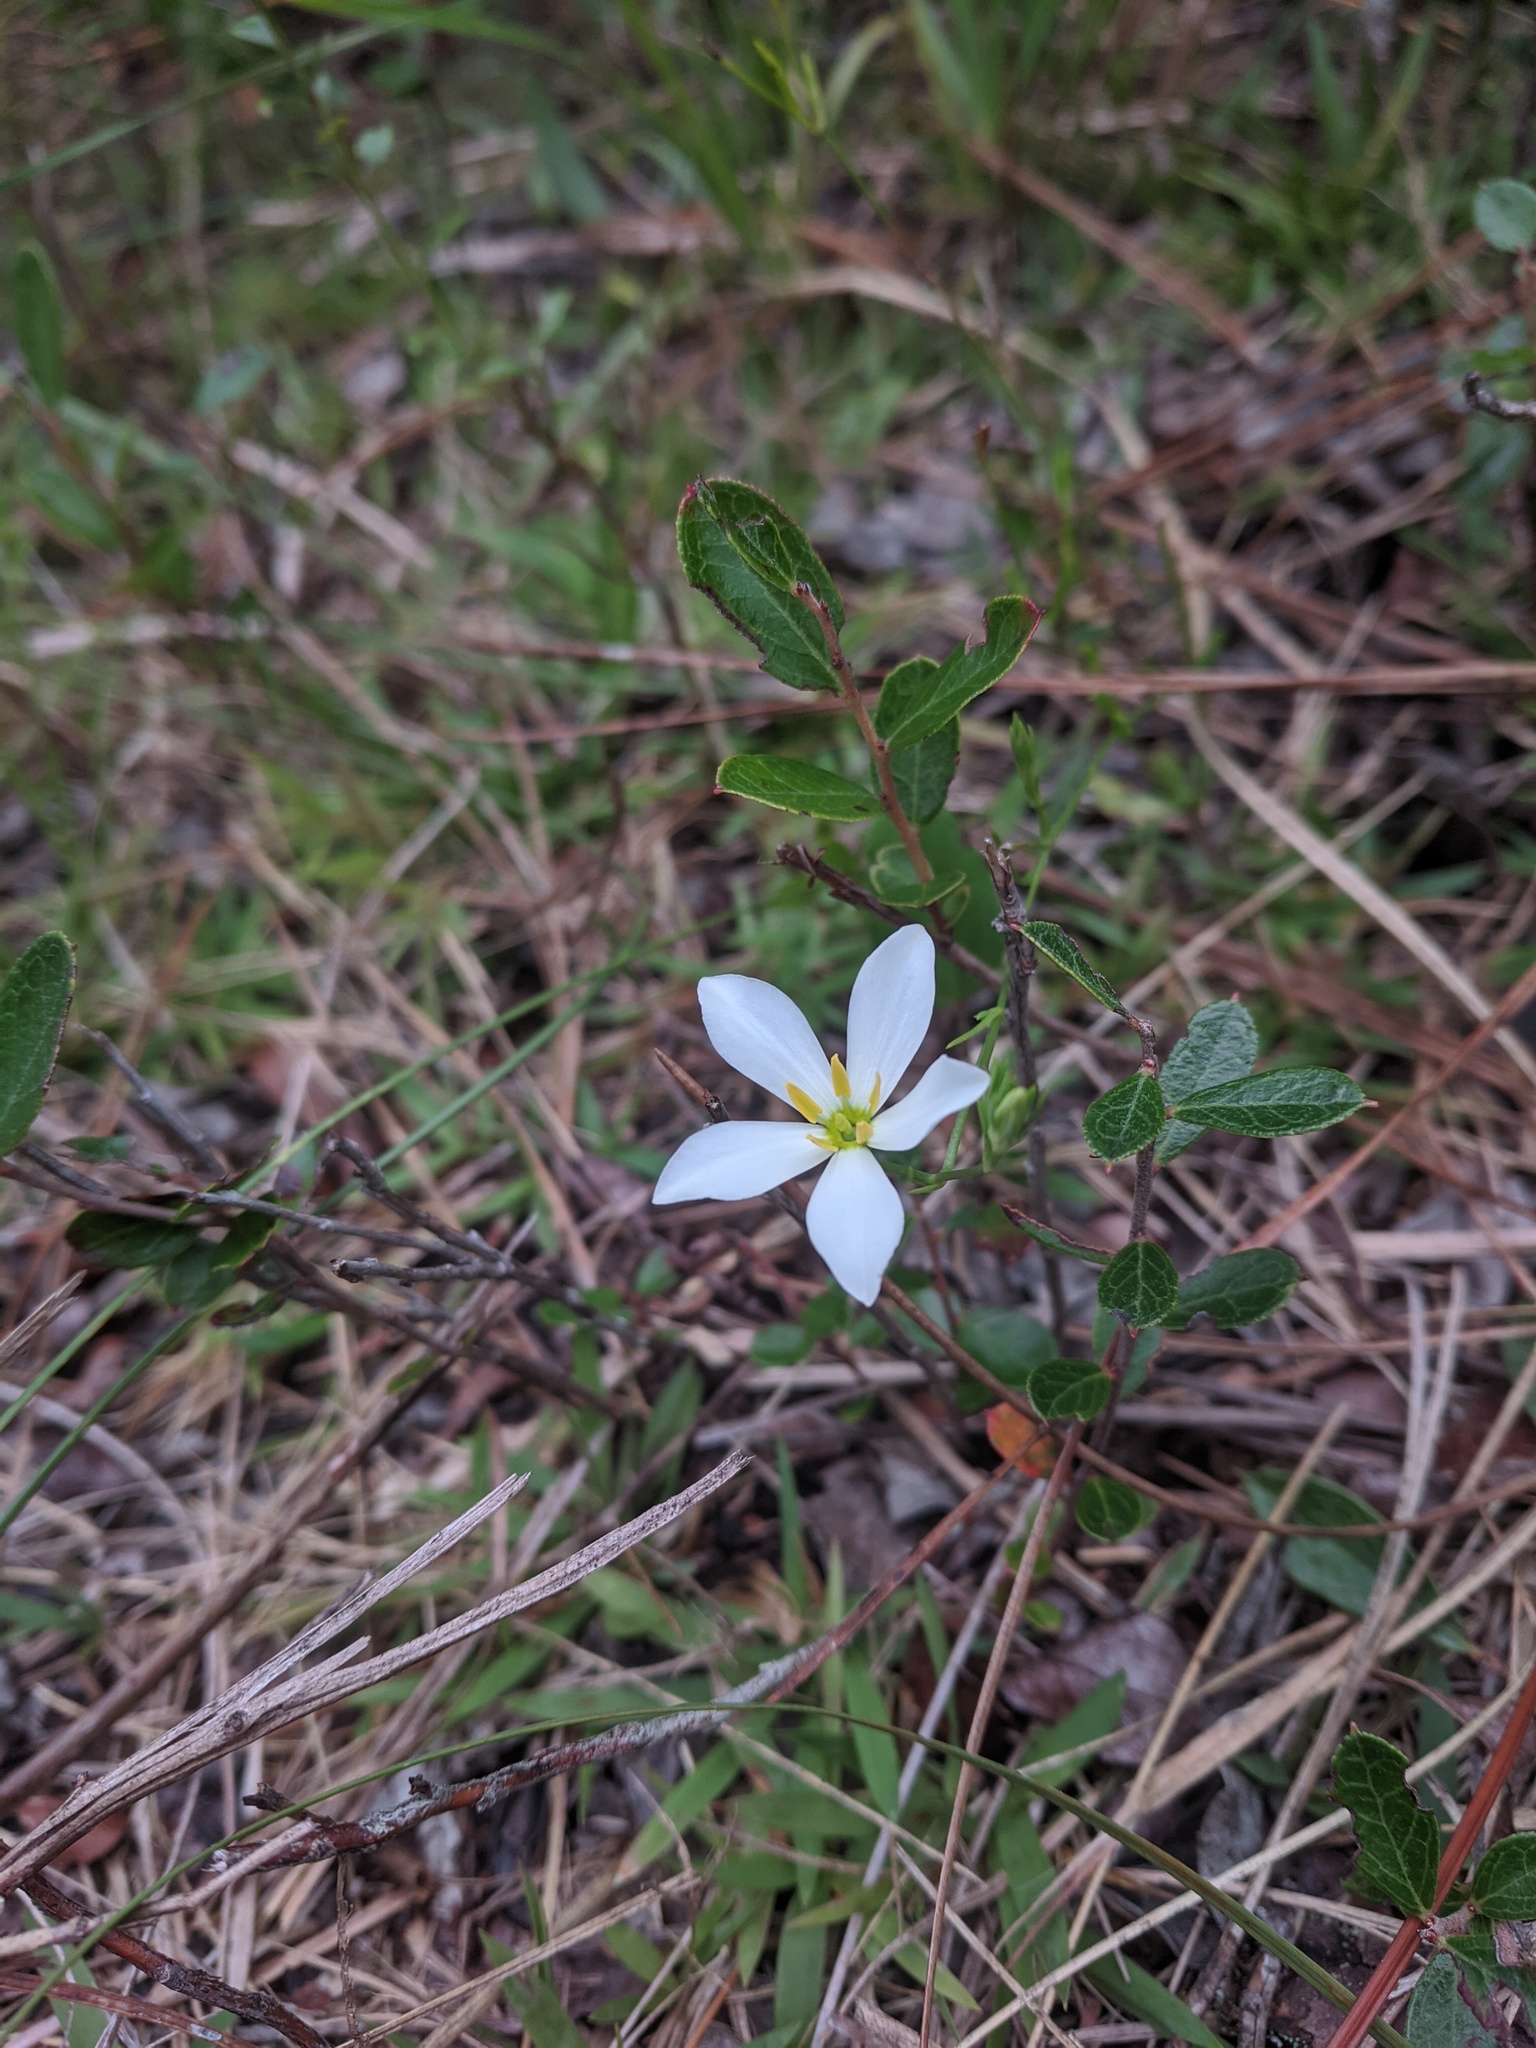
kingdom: Plantae
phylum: Tracheophyta
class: Magnoliopsida
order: Gentianales
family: Gentianaceae
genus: Sabatia
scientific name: Sabatia brevifolia
